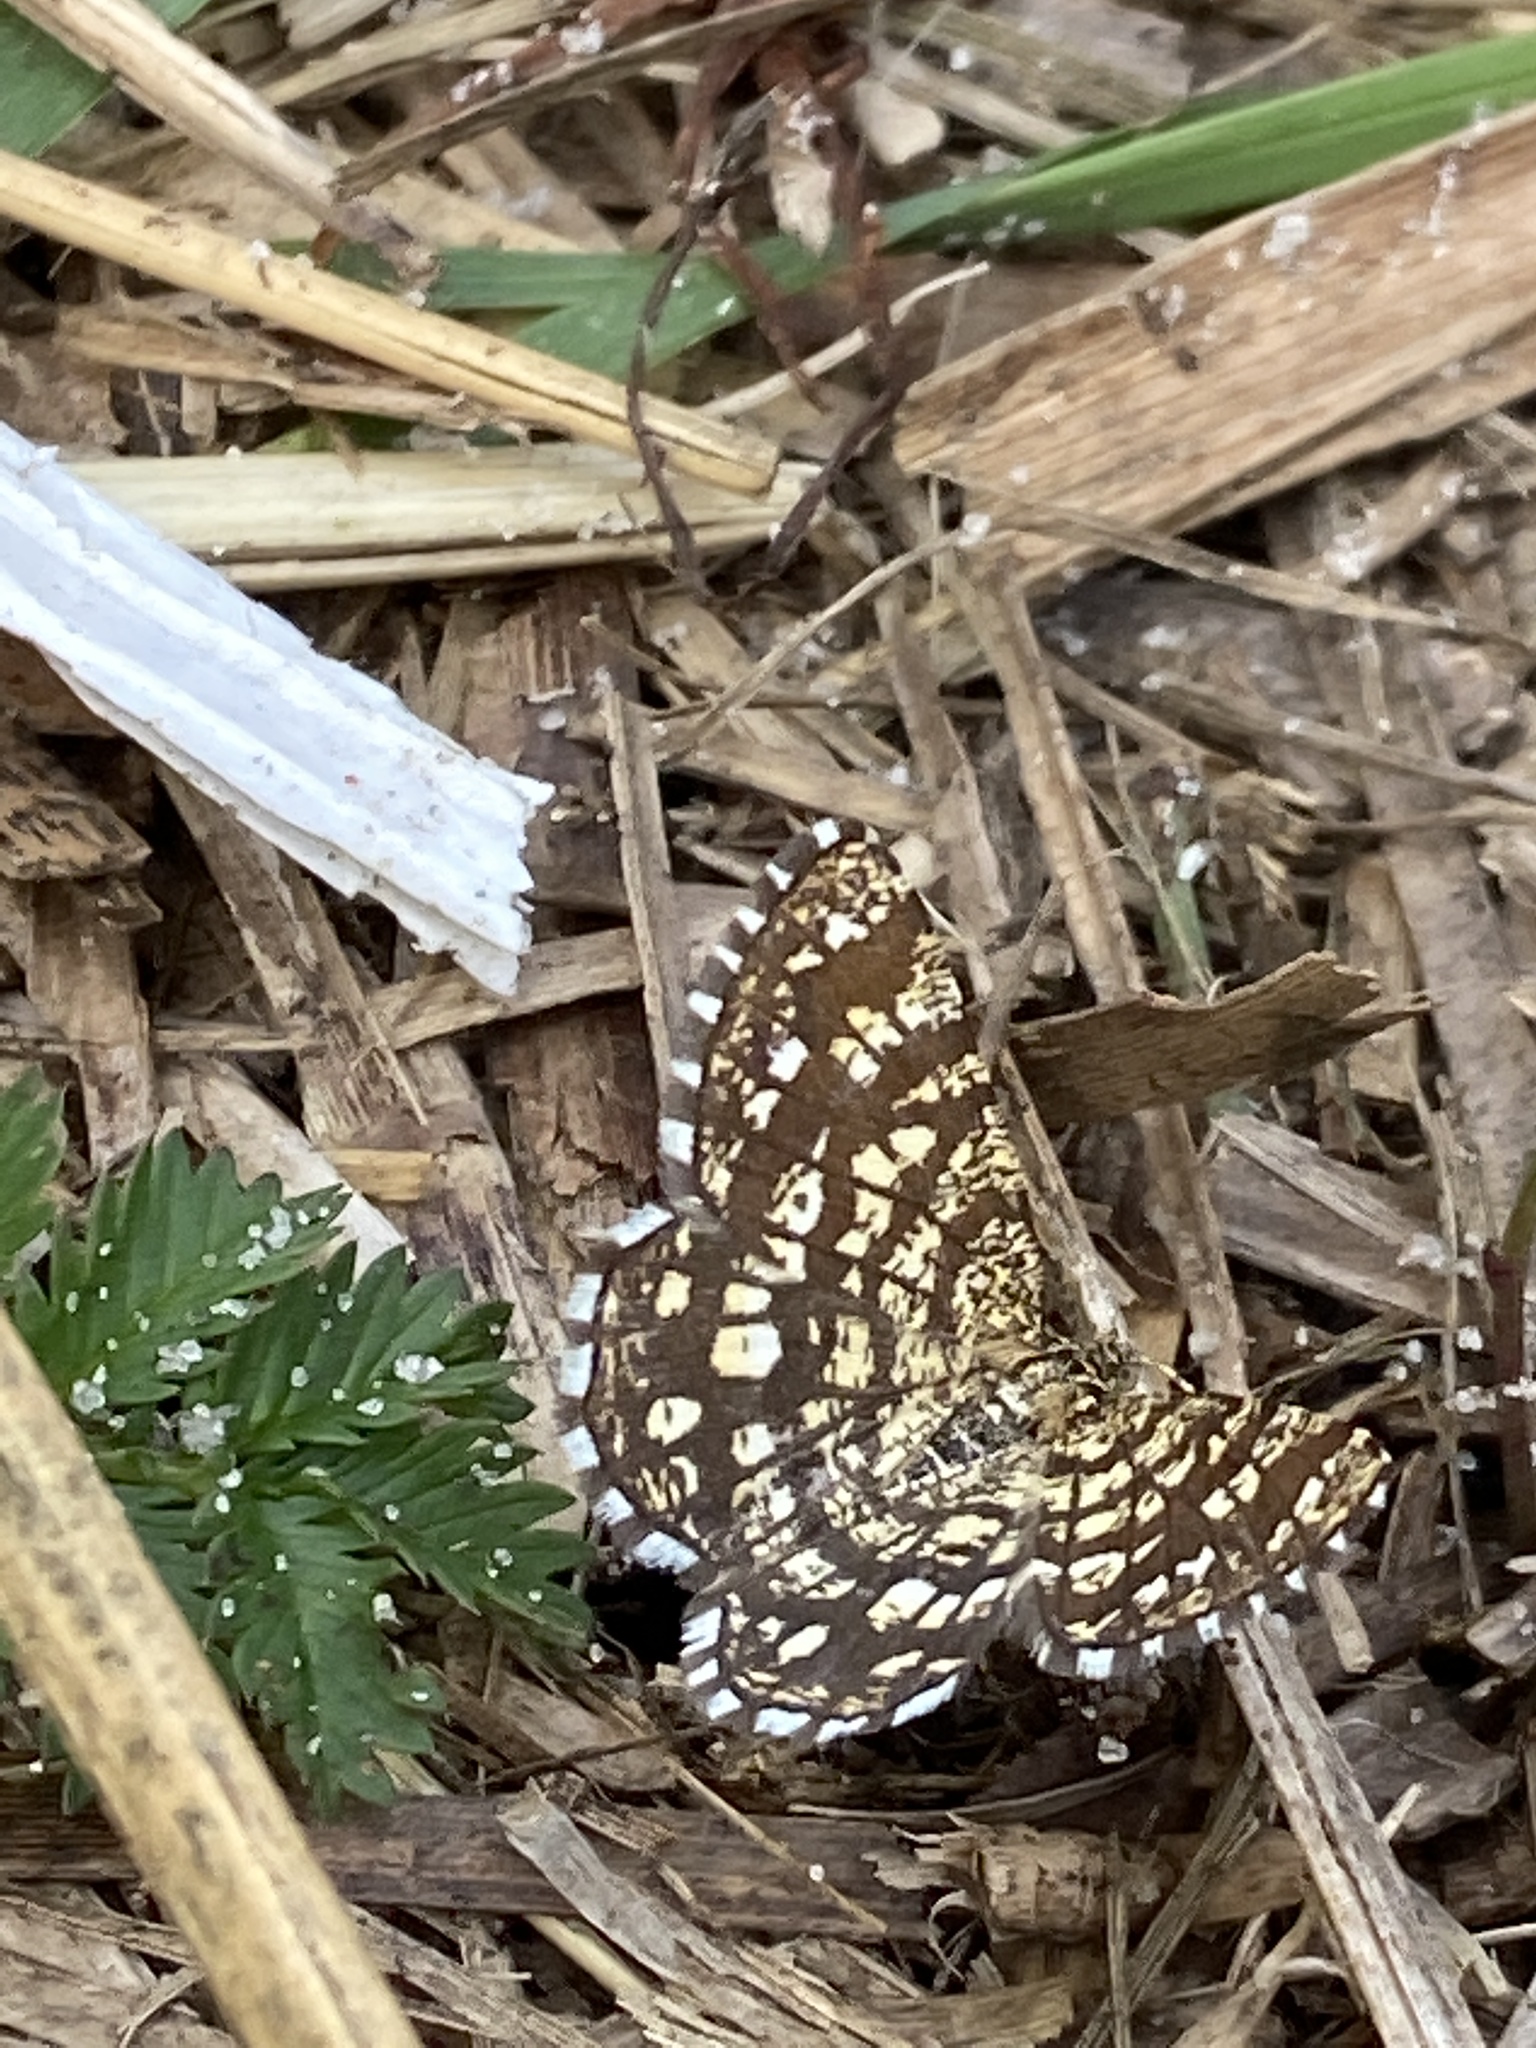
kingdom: Animalia
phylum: Arthropoda
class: Insecta
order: Lepidoptera
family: Geometridae
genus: Chiasmia
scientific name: Chiasmia clathrata
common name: Latticed heath
